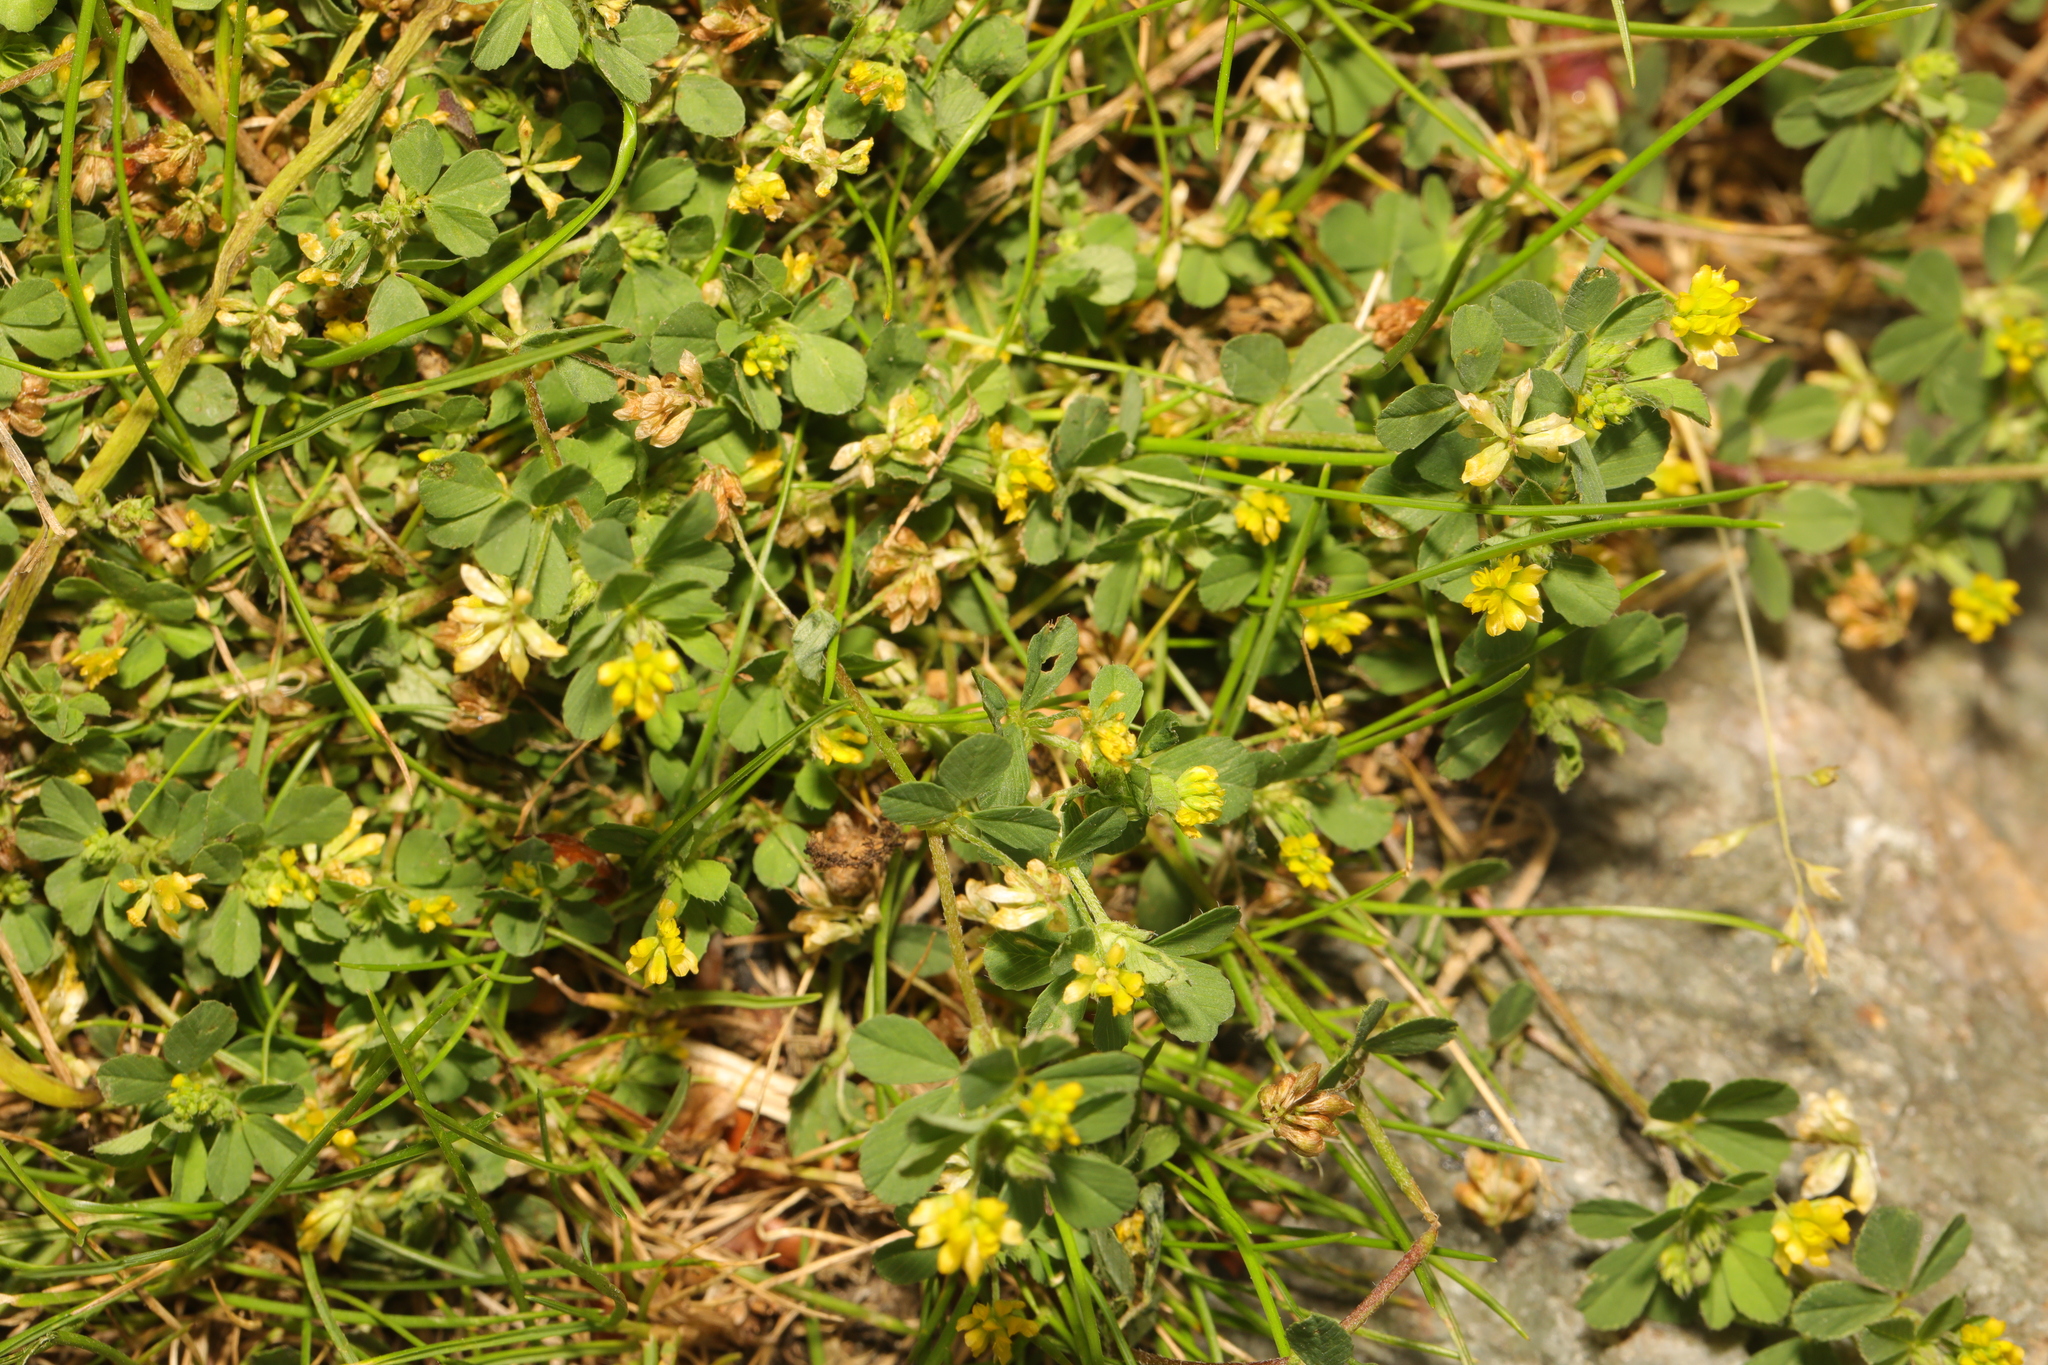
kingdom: Plantae
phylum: Tracheophyta
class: Magnoliopsida
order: Fabales
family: Fabaceae
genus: Trifolium
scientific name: Trifolium dubium
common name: Suckling clover
